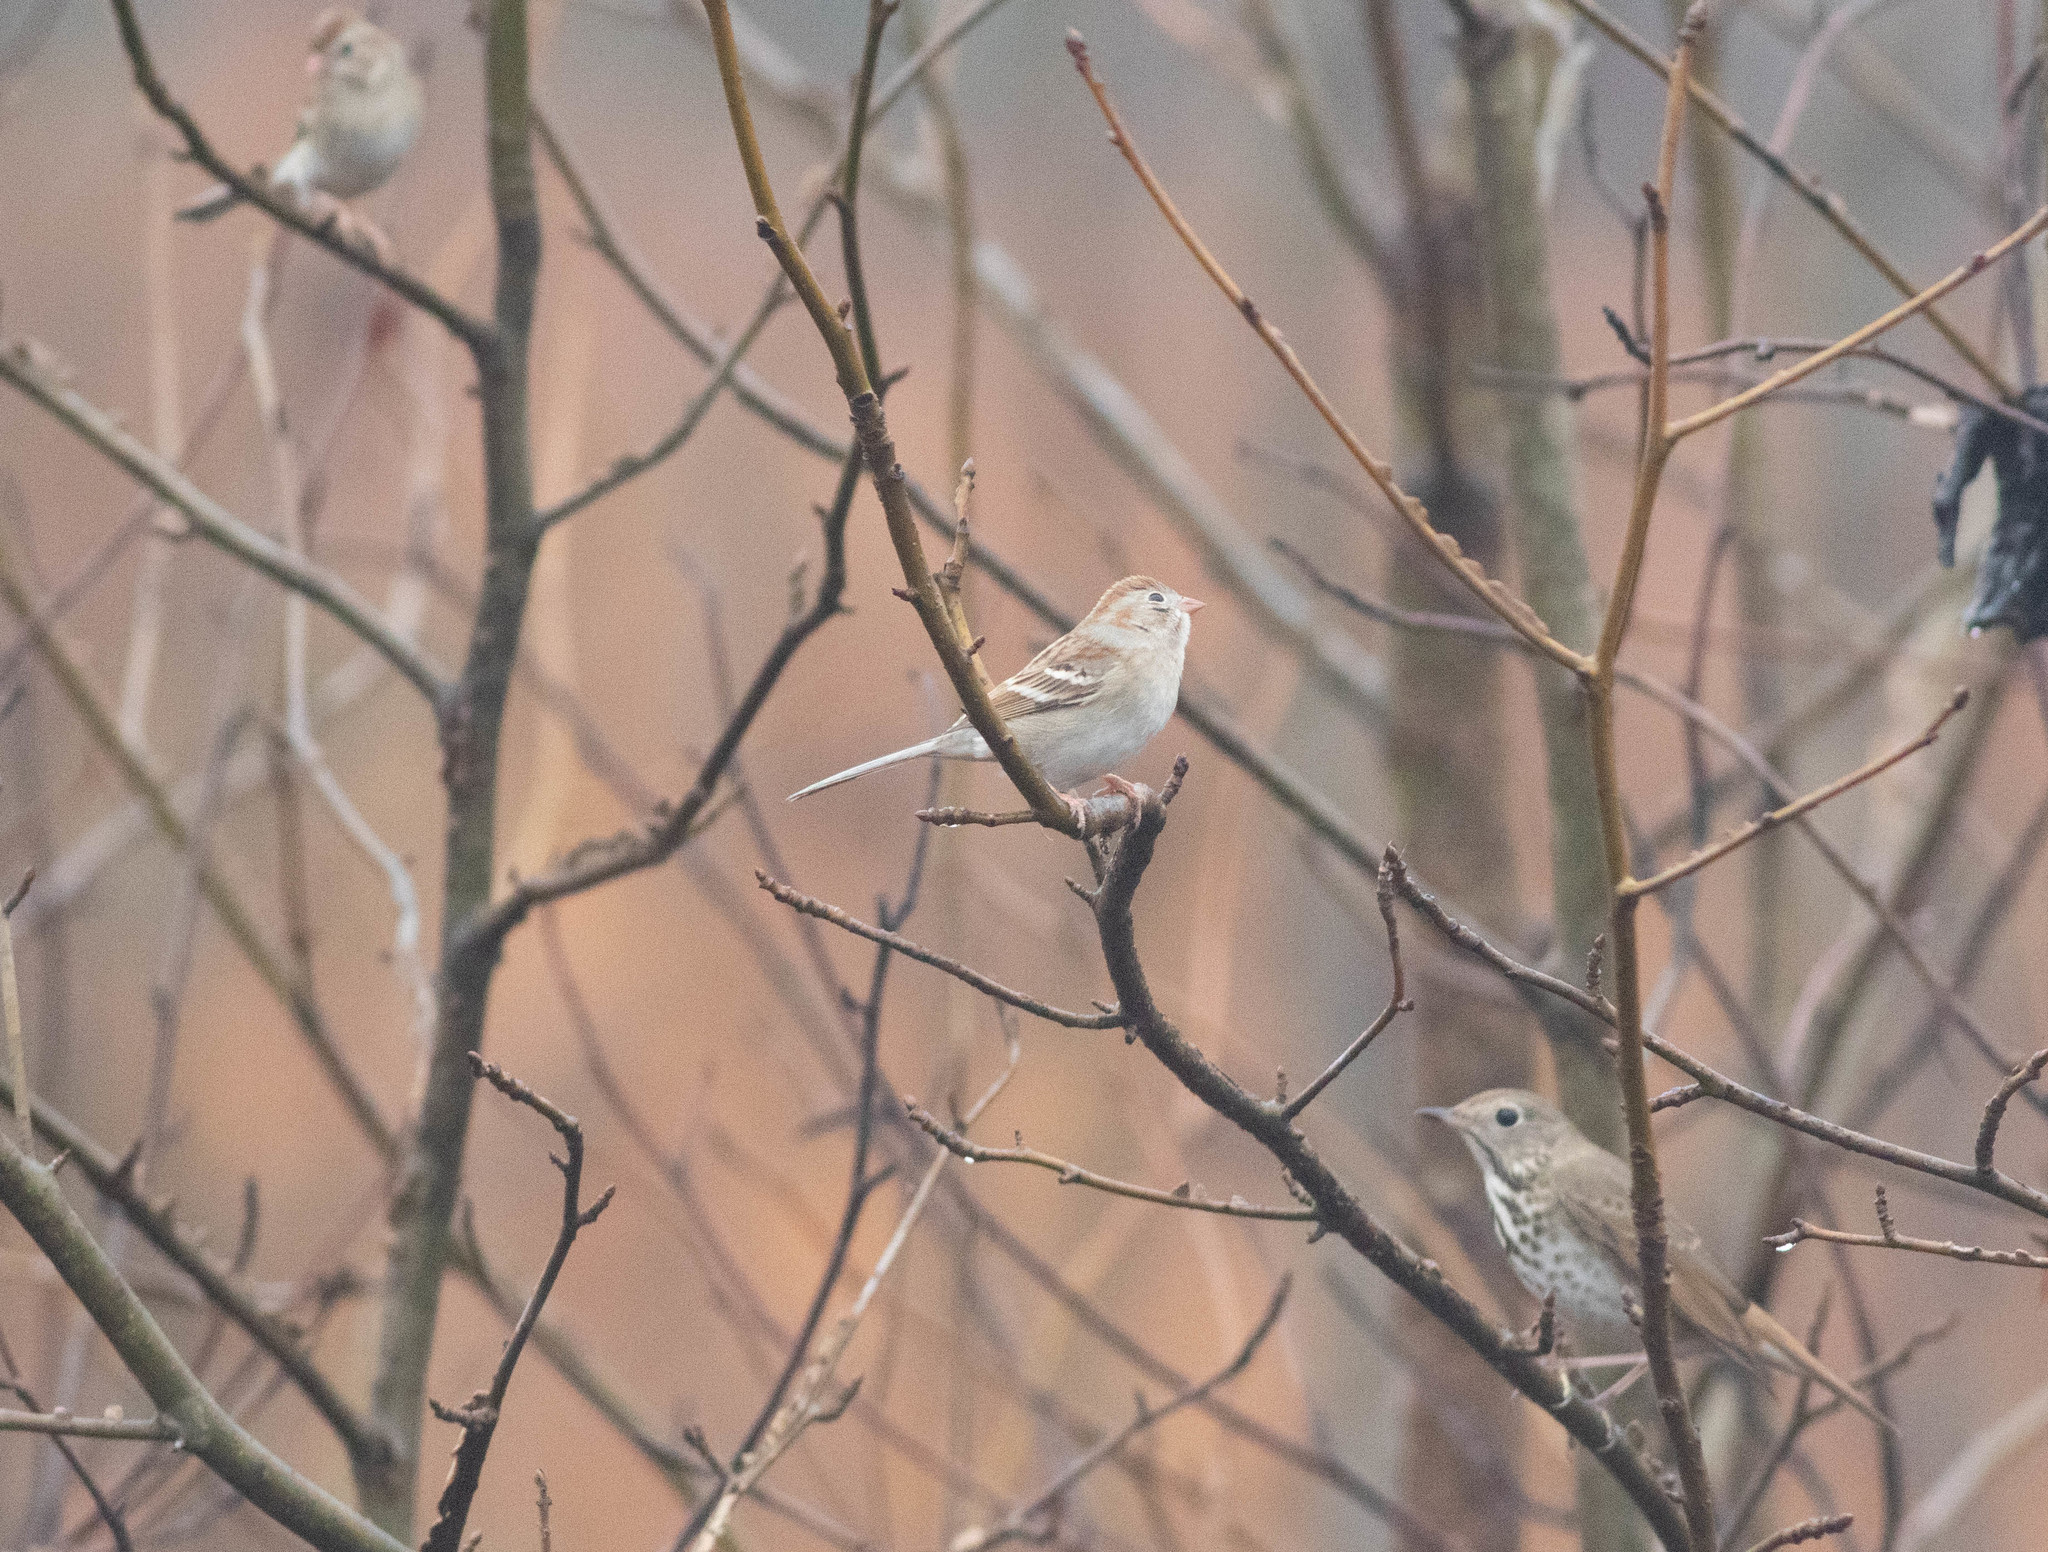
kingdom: Animalia
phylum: Chordata
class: Aves
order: Passeriformes
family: Passerellidae
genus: Spizella
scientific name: Spizella pusilla
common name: Field sparrow
